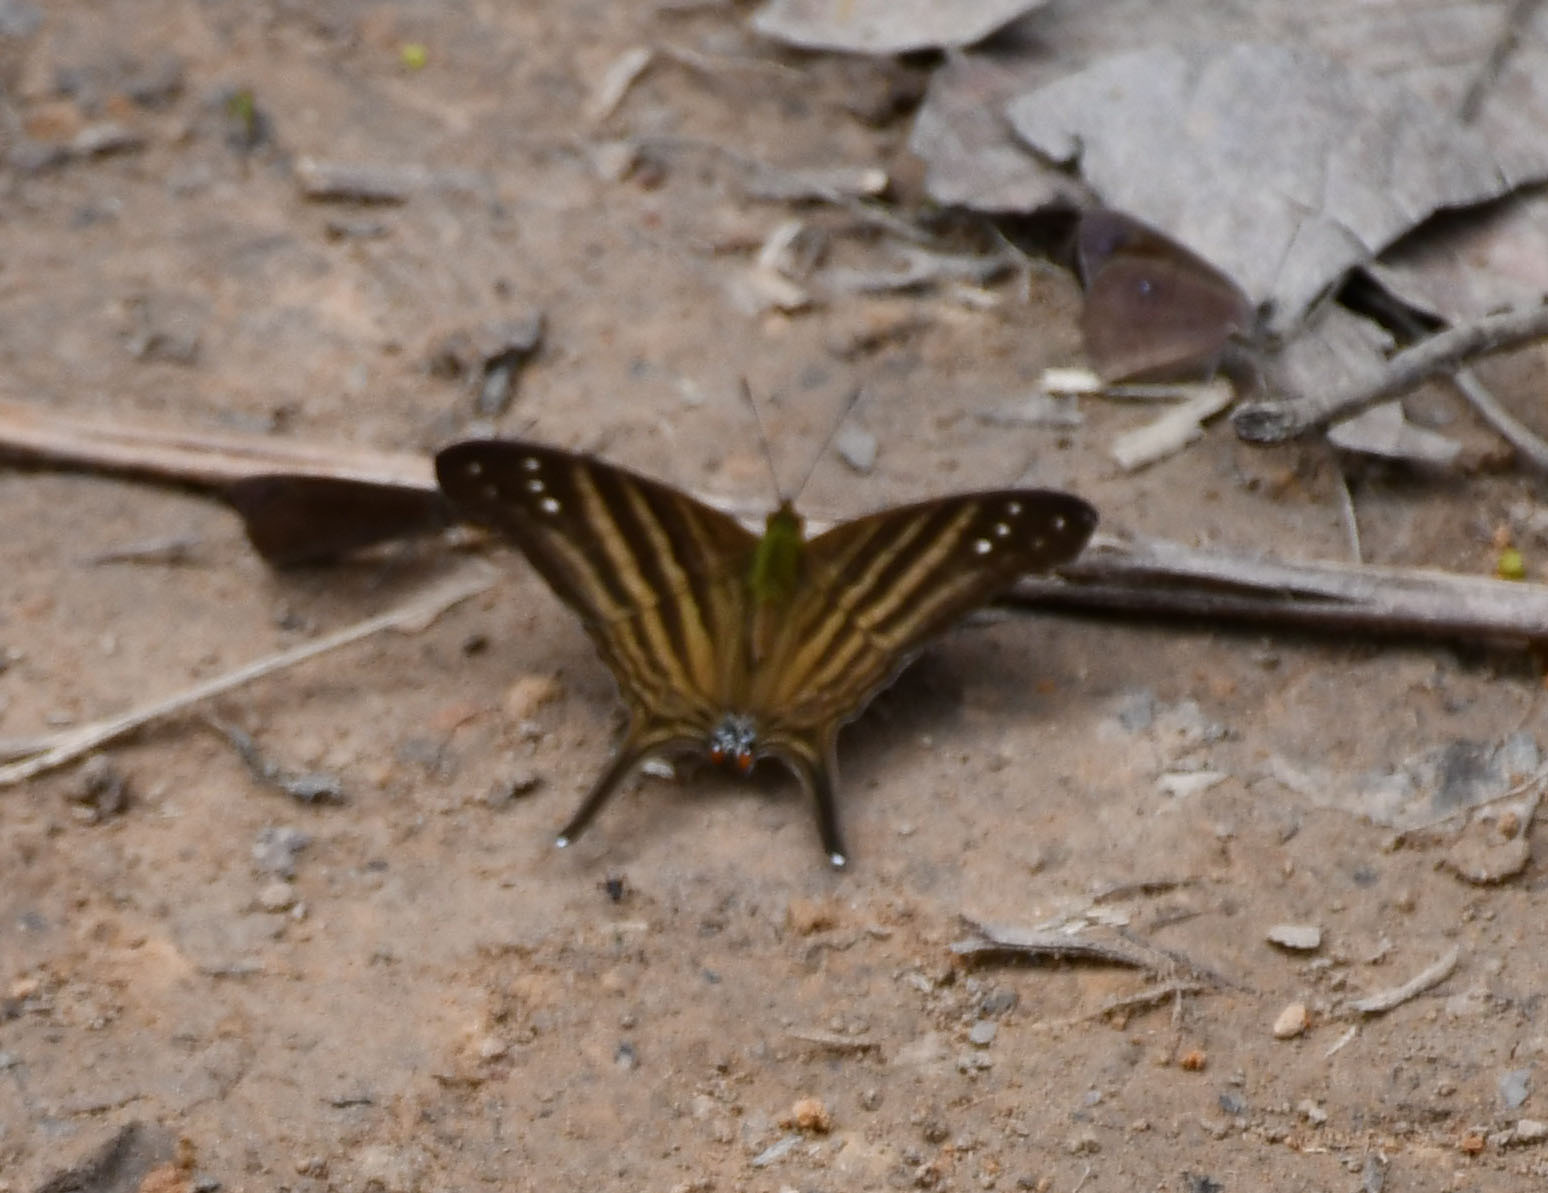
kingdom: Animalia
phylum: Arthropoda
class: Insecta
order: Lepidoptera
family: Nymphalidae
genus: Marpesia
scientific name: Marpesia chiron
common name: Many-banded daggerwing
